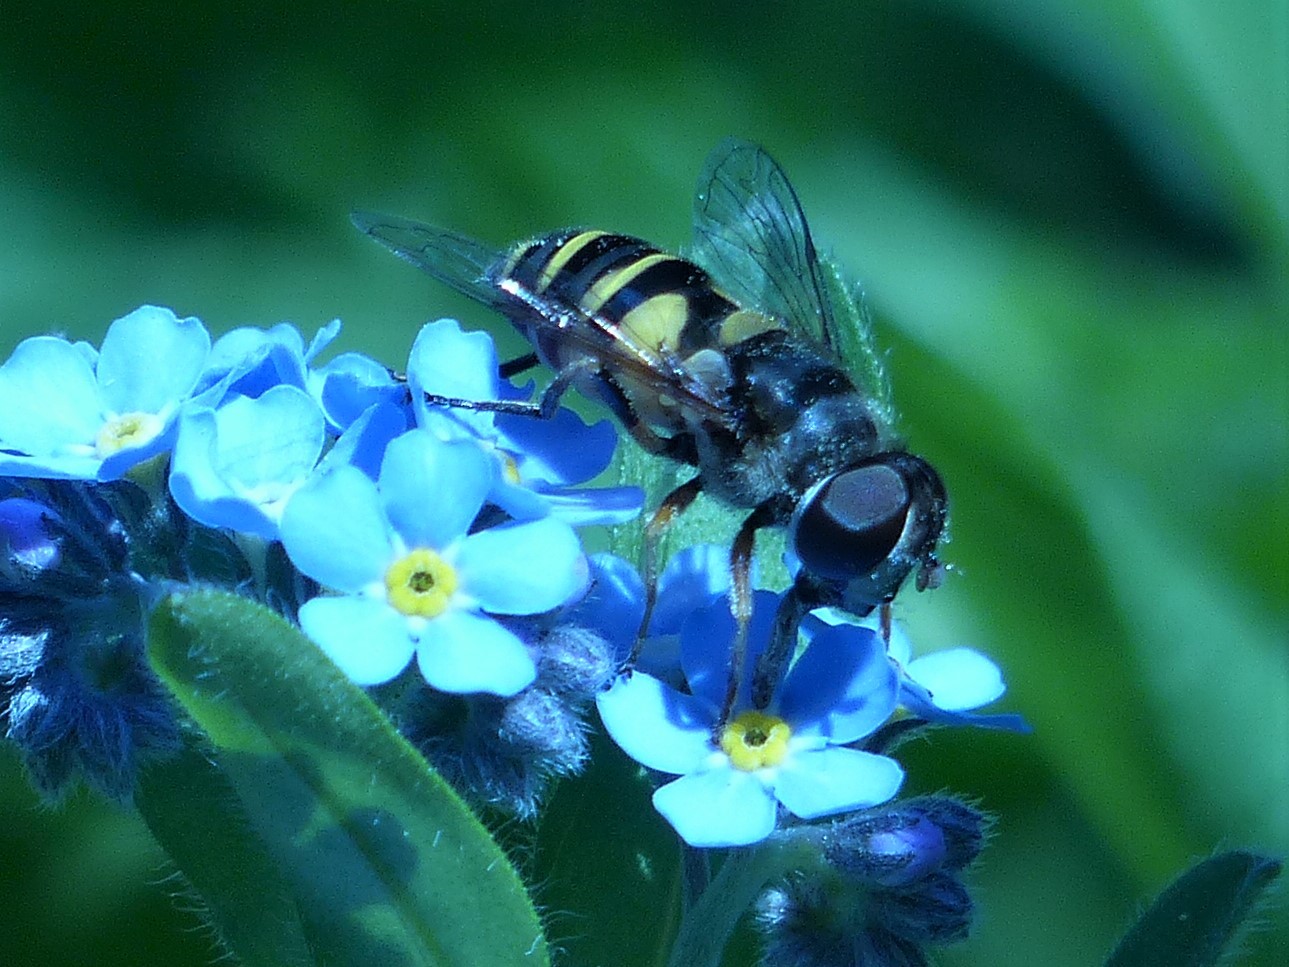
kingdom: Animalia
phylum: Arthropoda
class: Insecta
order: Diptera
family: Syrphidae
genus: Eristalis
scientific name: Eristalis transversa
